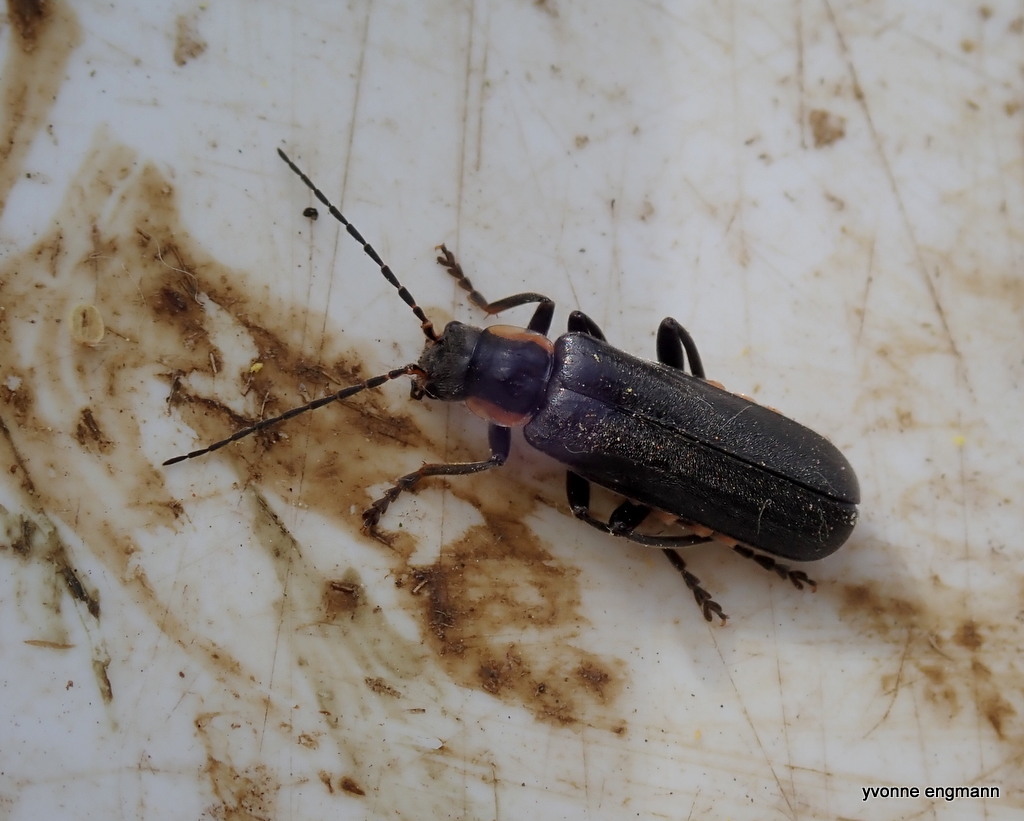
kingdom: Animalia
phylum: Arthropoda
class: Insecta
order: Coleoptera
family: Cantharidae
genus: Cantharis
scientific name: Cantharis obscura
